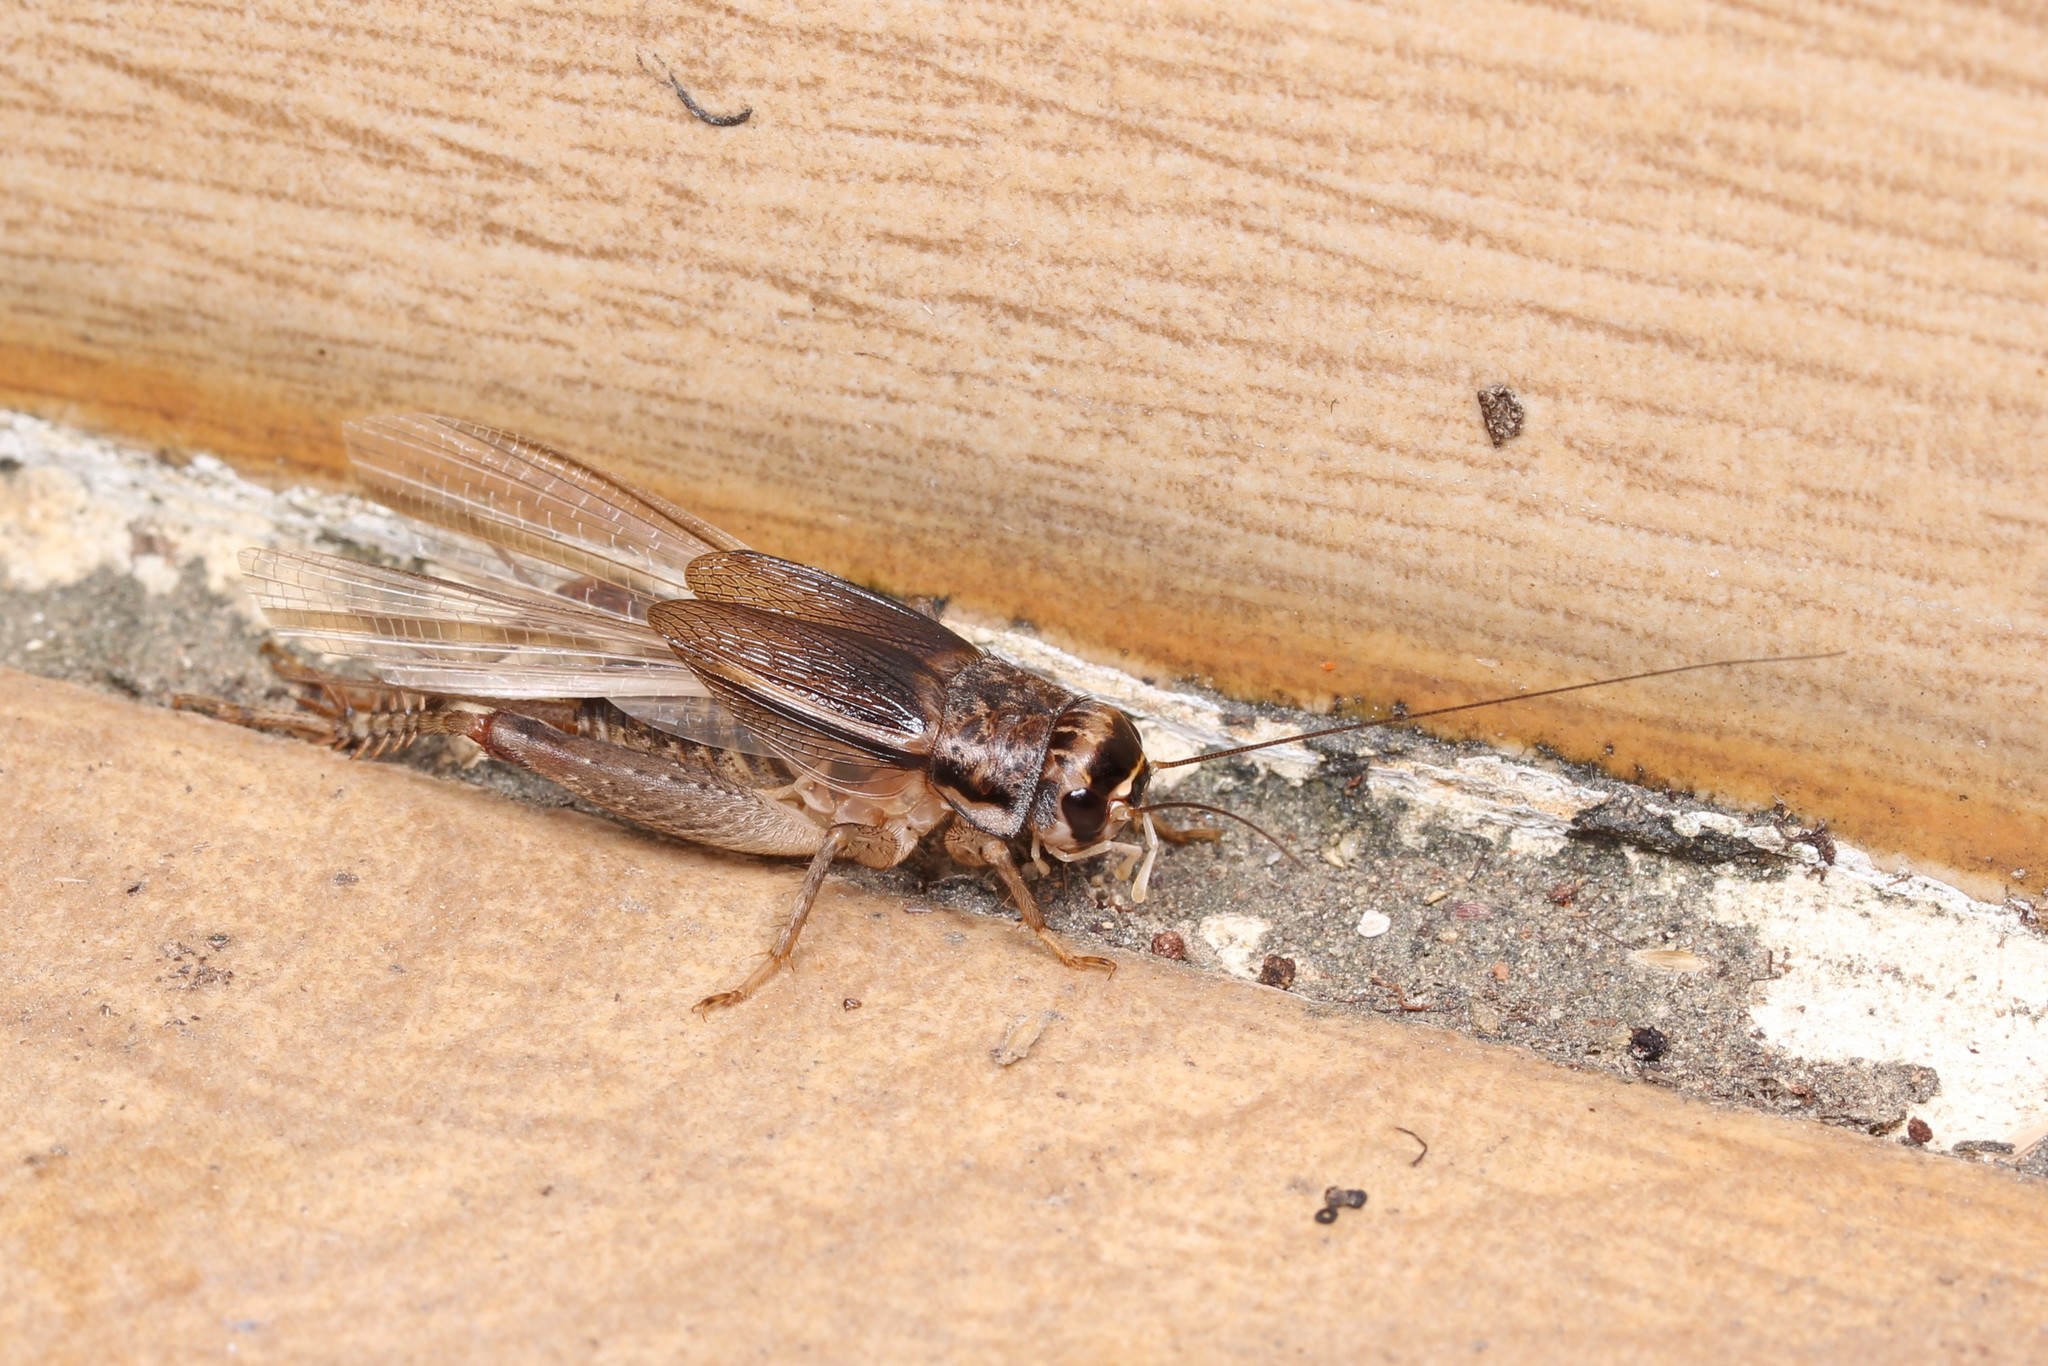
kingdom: Animalia
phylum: Arthropoda
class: Insecta
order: Orthoptera
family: Gryllidae
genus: Velarifictorus
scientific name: Velarifictorus aspersus
